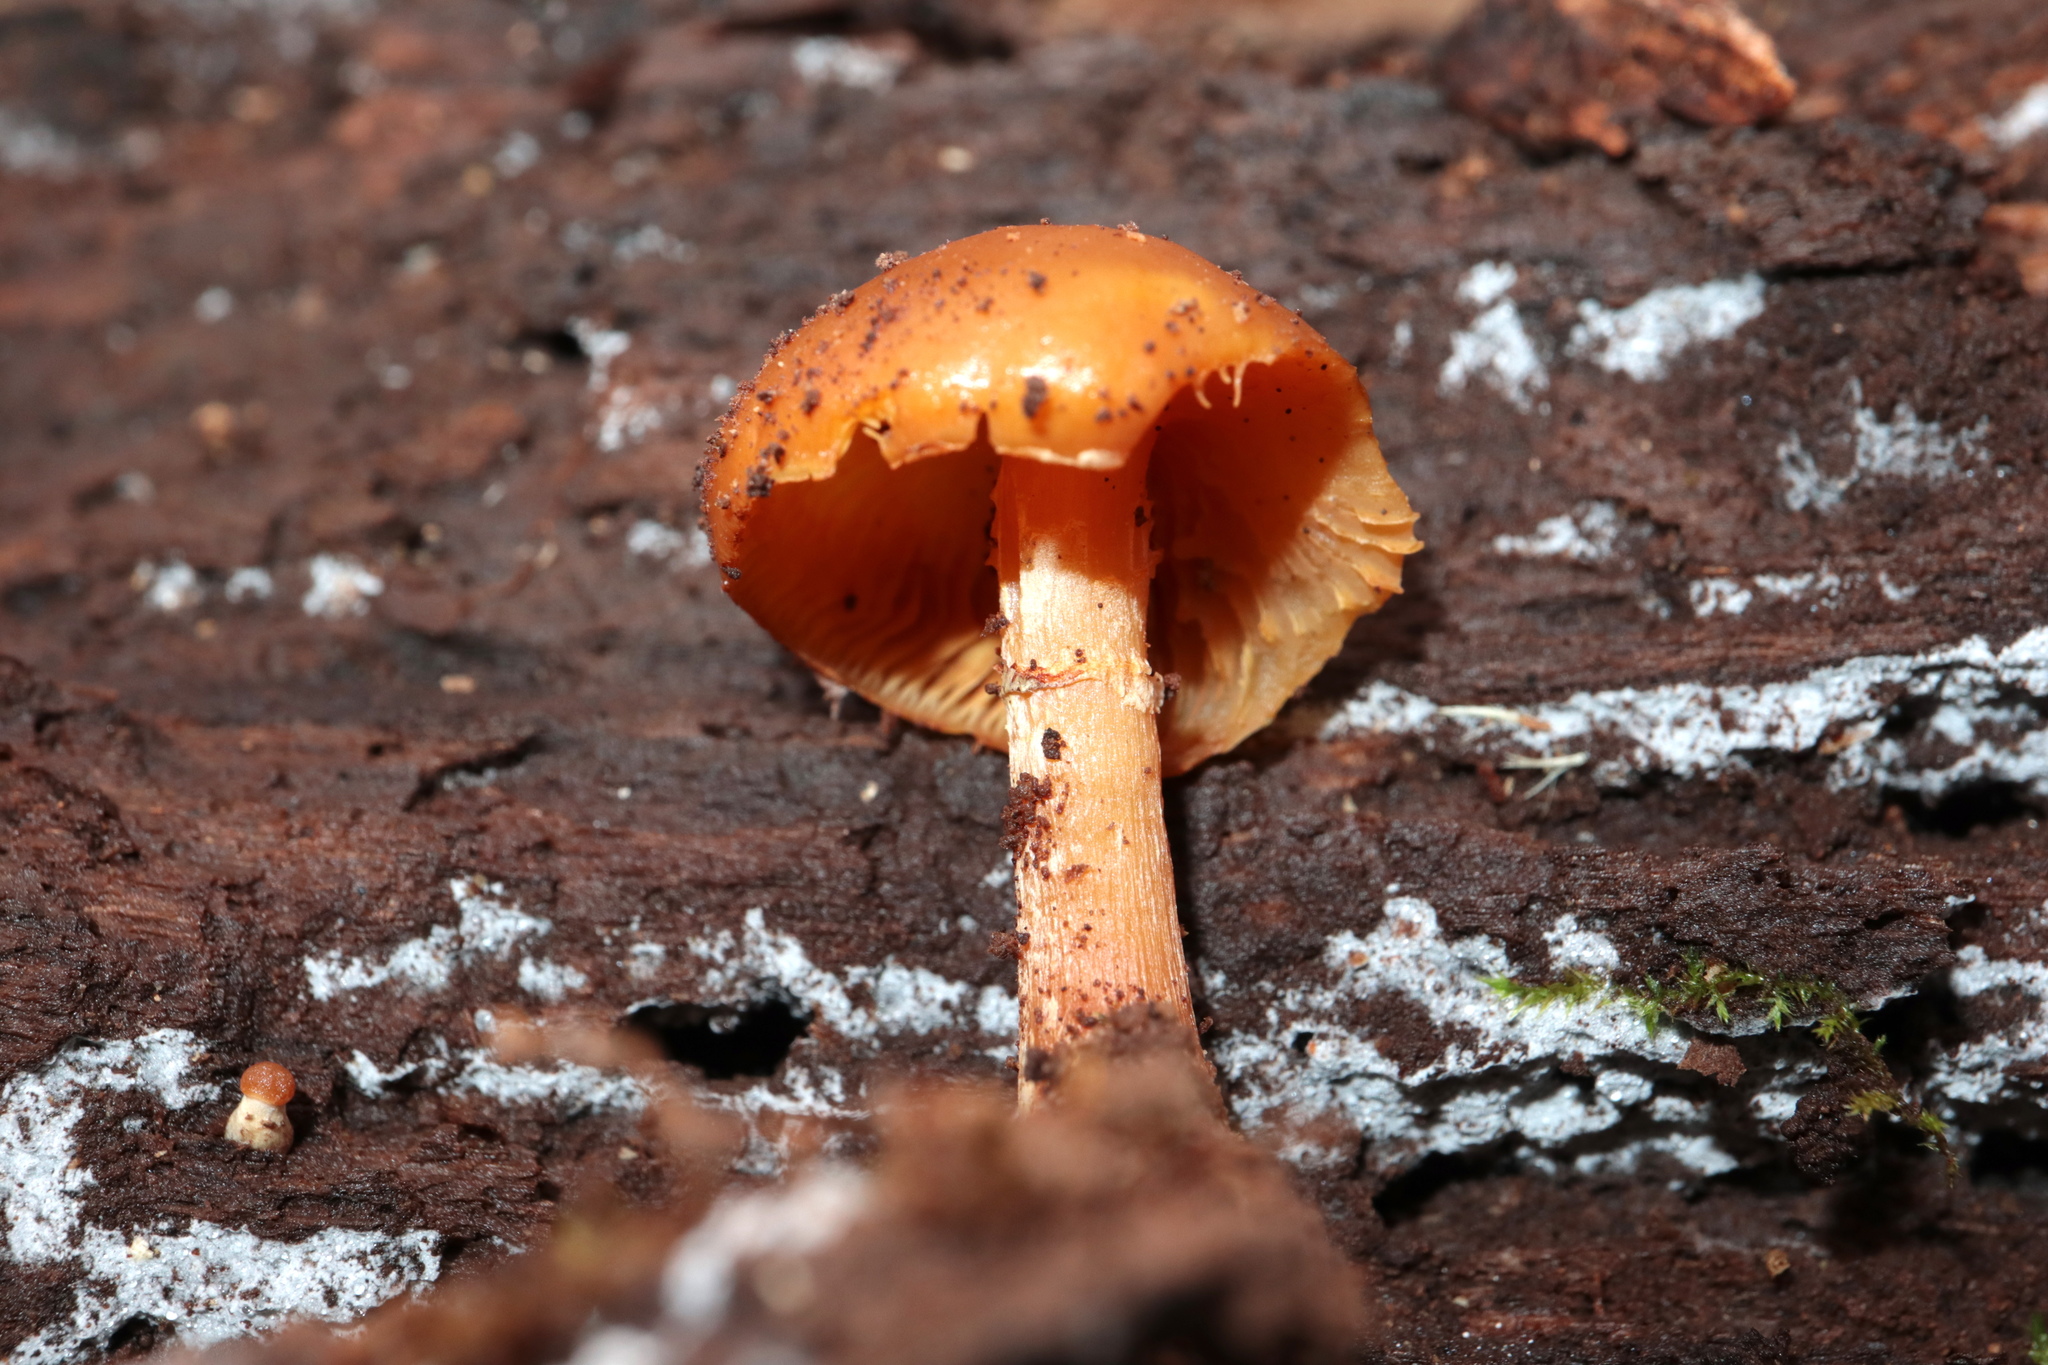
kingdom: Fungi
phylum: Basidiomycota
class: Agaricomycetes
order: Agaricales
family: Hymenogastraceae
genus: Galerina
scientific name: Galerina marginata
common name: Funeral bell
